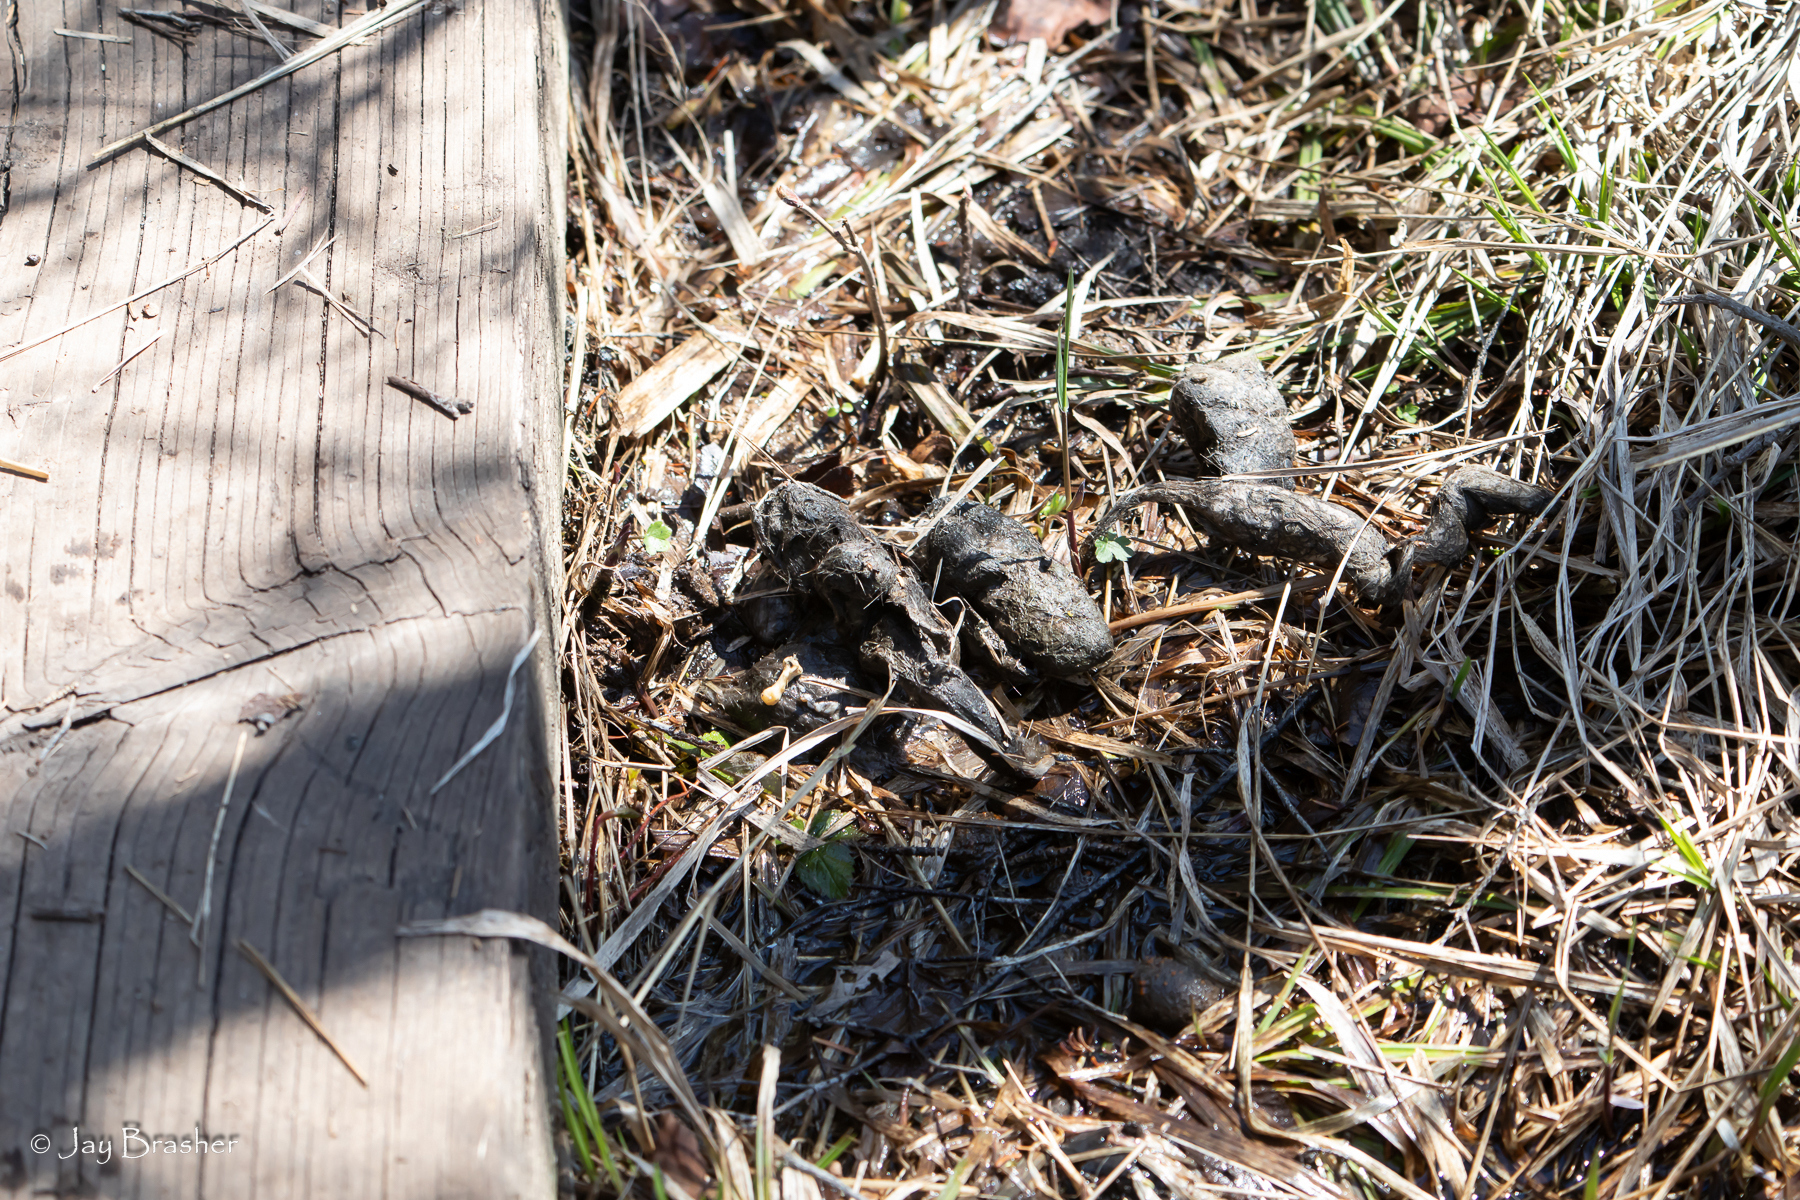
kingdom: Animalia
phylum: Chordata
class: Mammalia
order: Carnivora
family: Canidae
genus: Canis
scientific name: Canis lupus
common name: Gray wolf
